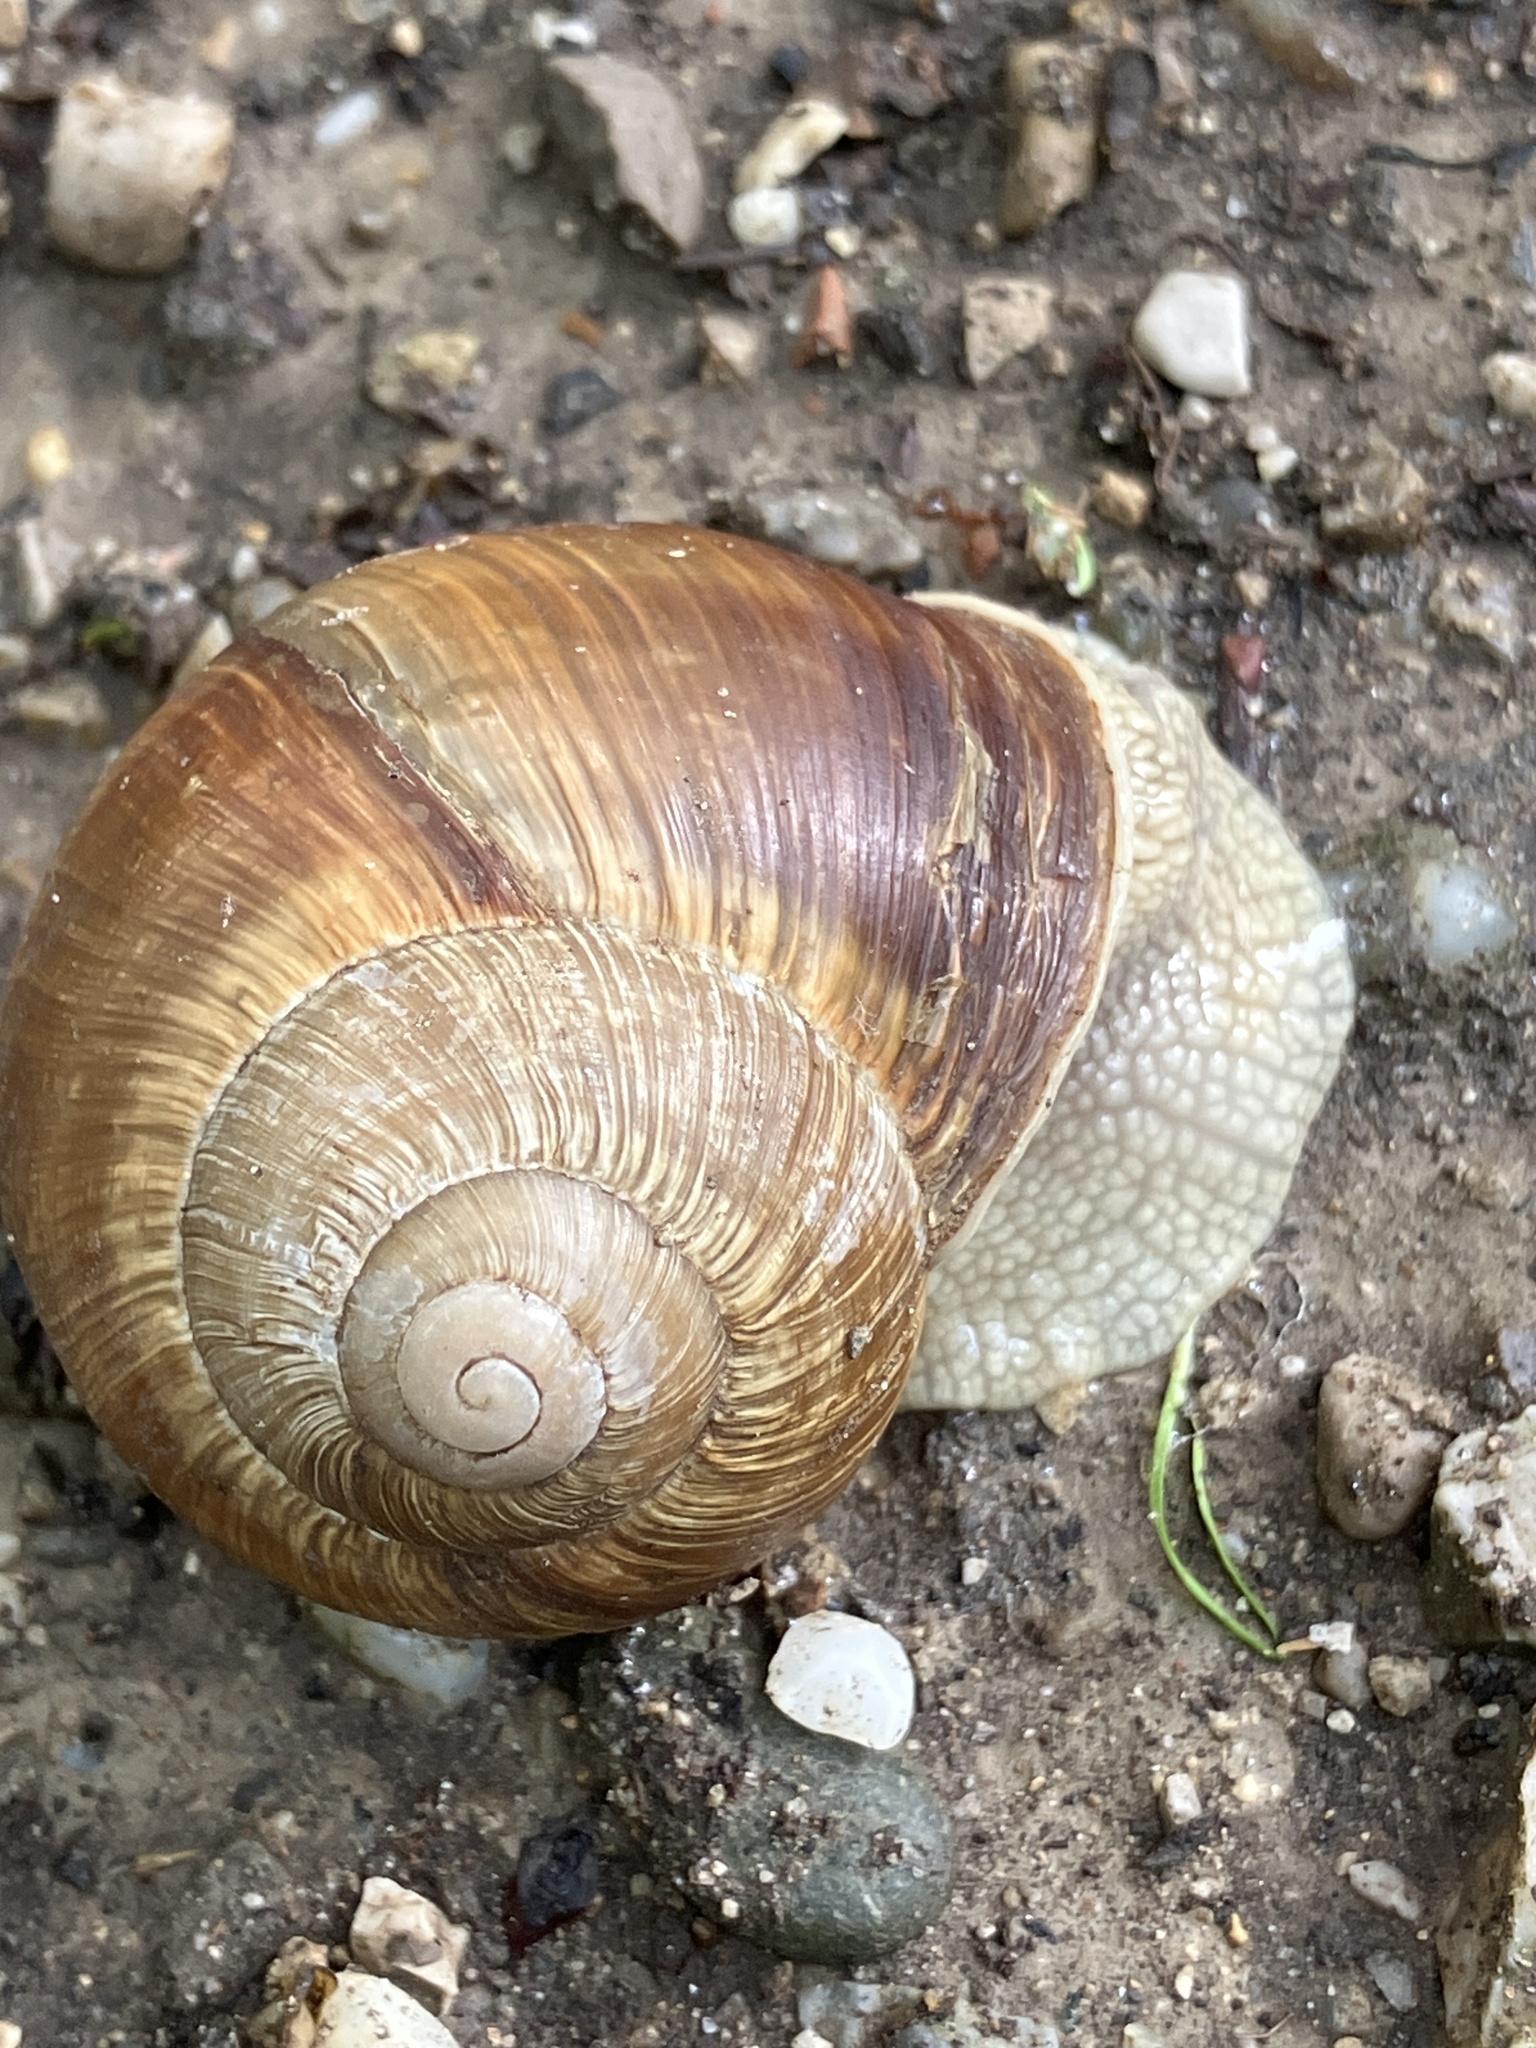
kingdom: Animalia
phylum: Mollusca
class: Gastropoda
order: Stylommatophora
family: Helicidae
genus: Helix
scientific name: Helix pomatia
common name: Roman snail
